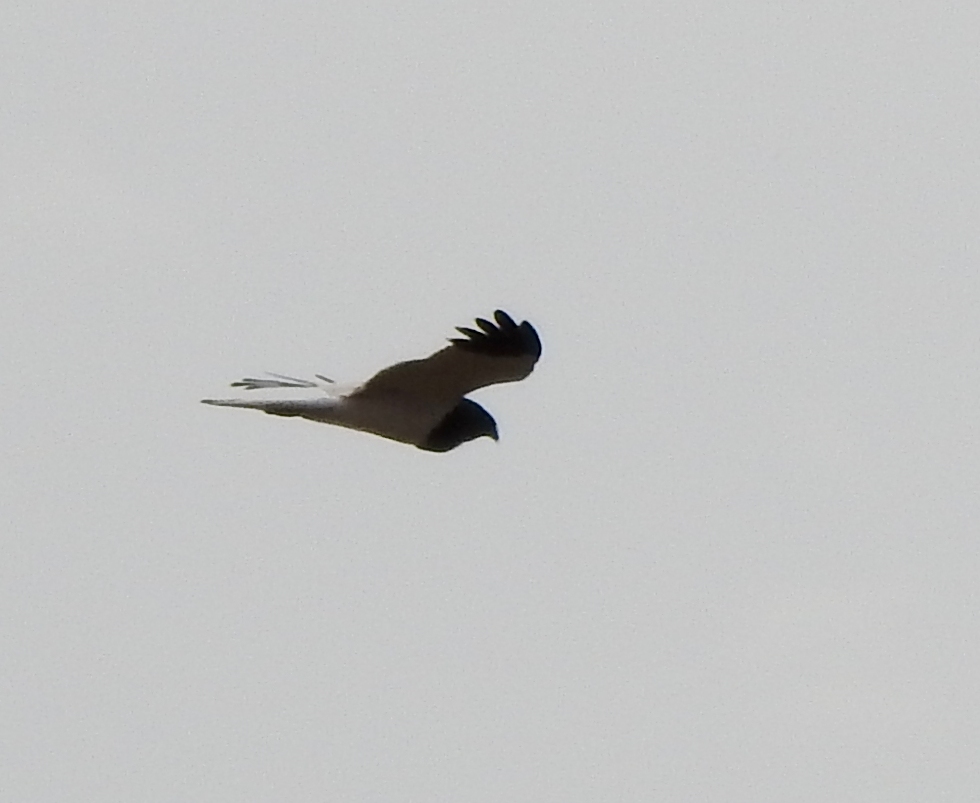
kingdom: Animalia
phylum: Chordata
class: Aves
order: Accipitriformes
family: Accipitridae
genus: Circus
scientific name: Circus melanoleucos
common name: Pied harrier
